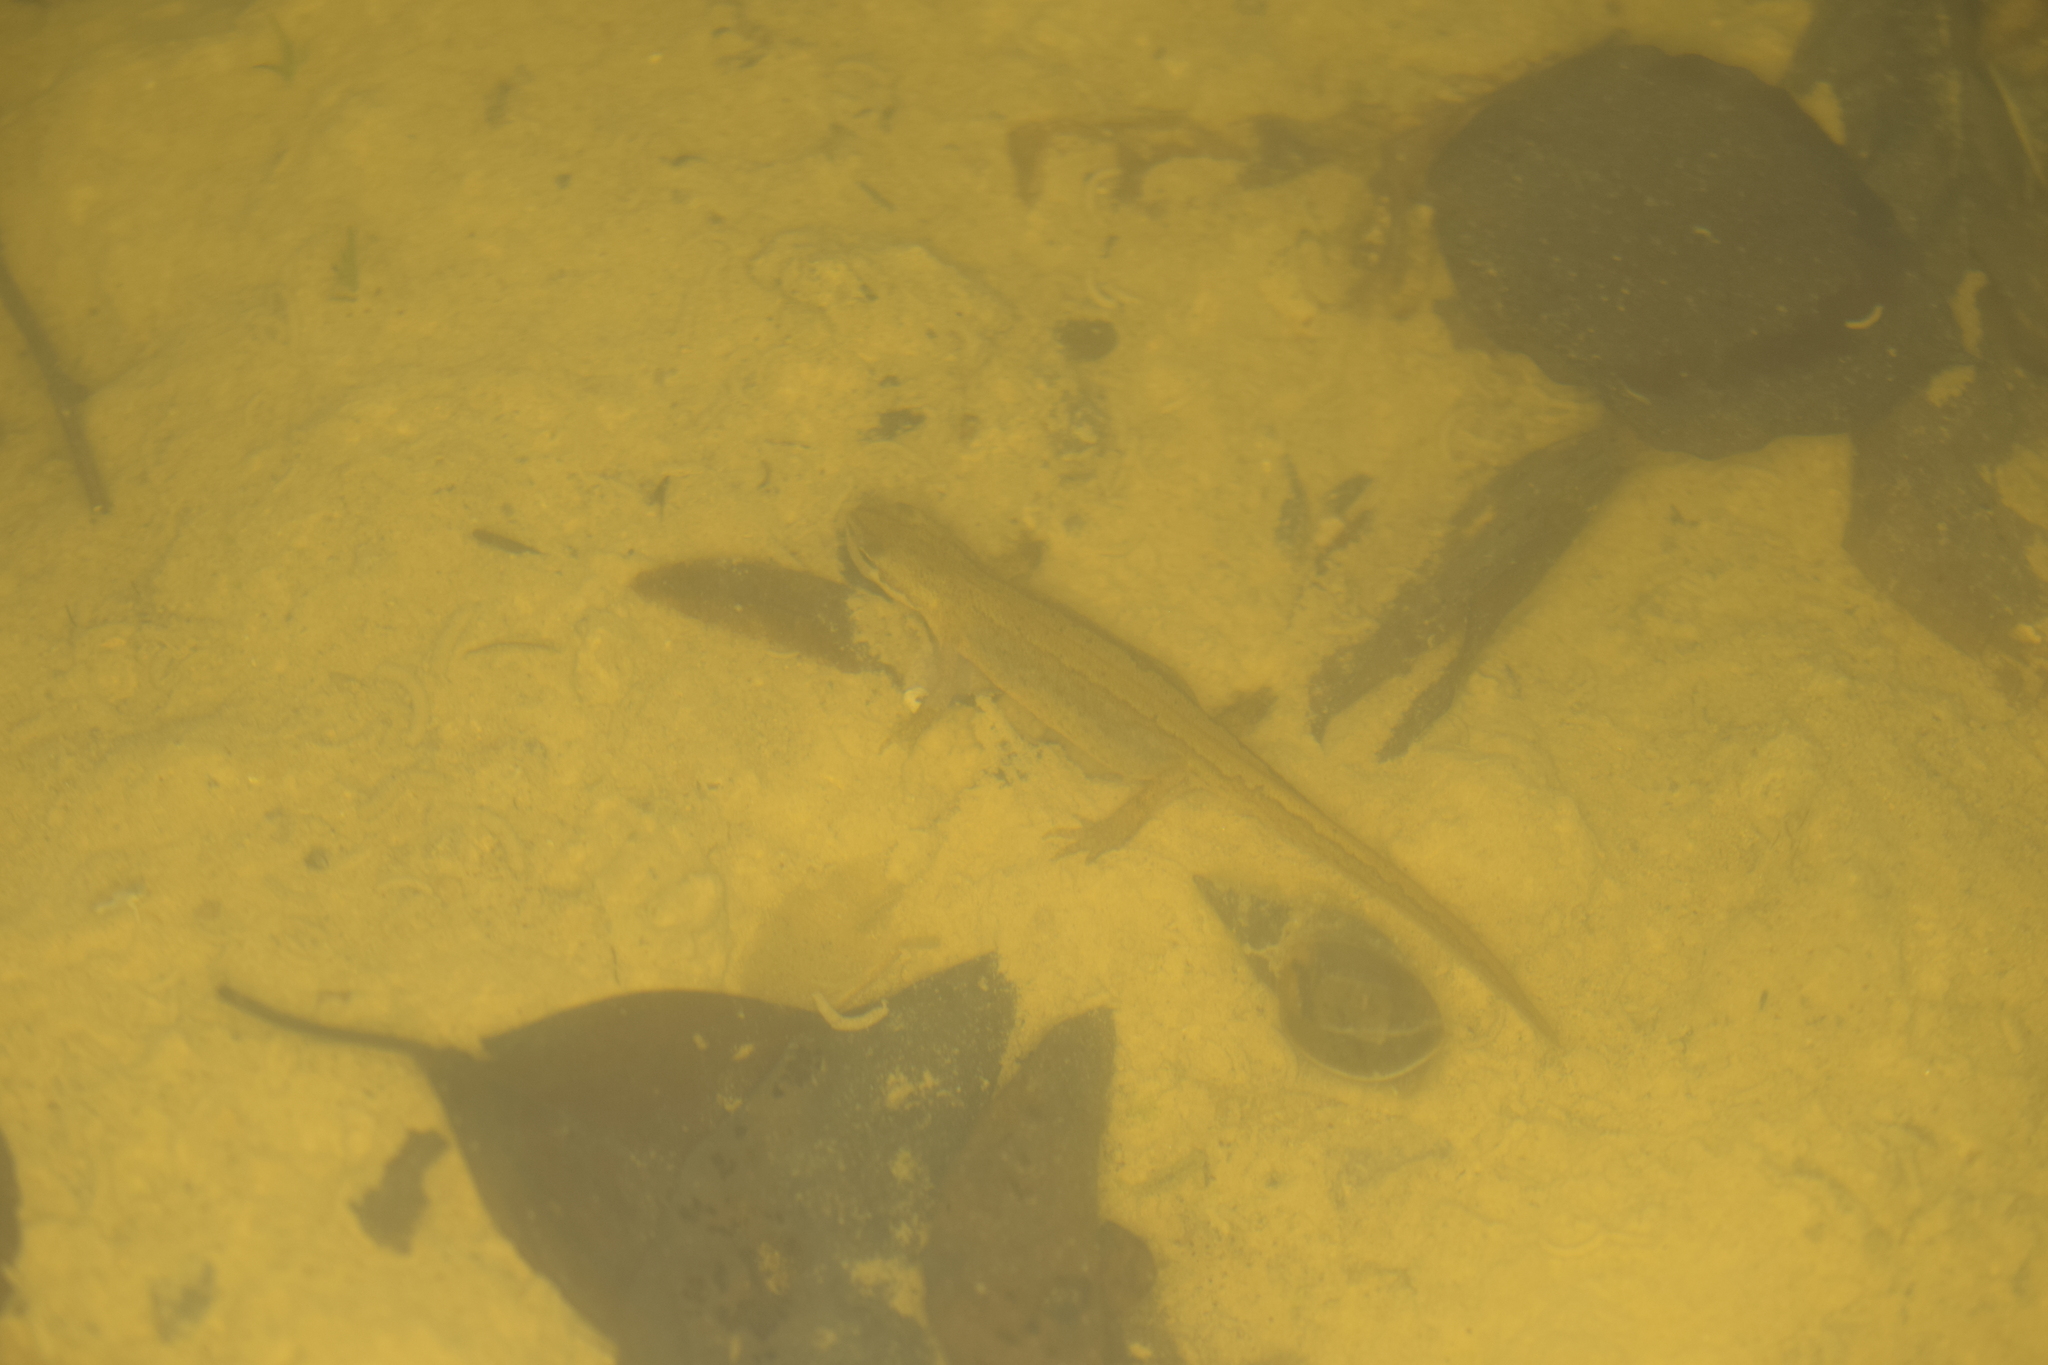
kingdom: Animalia
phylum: Chordata
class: Amphibia
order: Caudata
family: Salamandridae
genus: Lissotriton
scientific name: Lissotriton vulgaris
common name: Smooth newt
